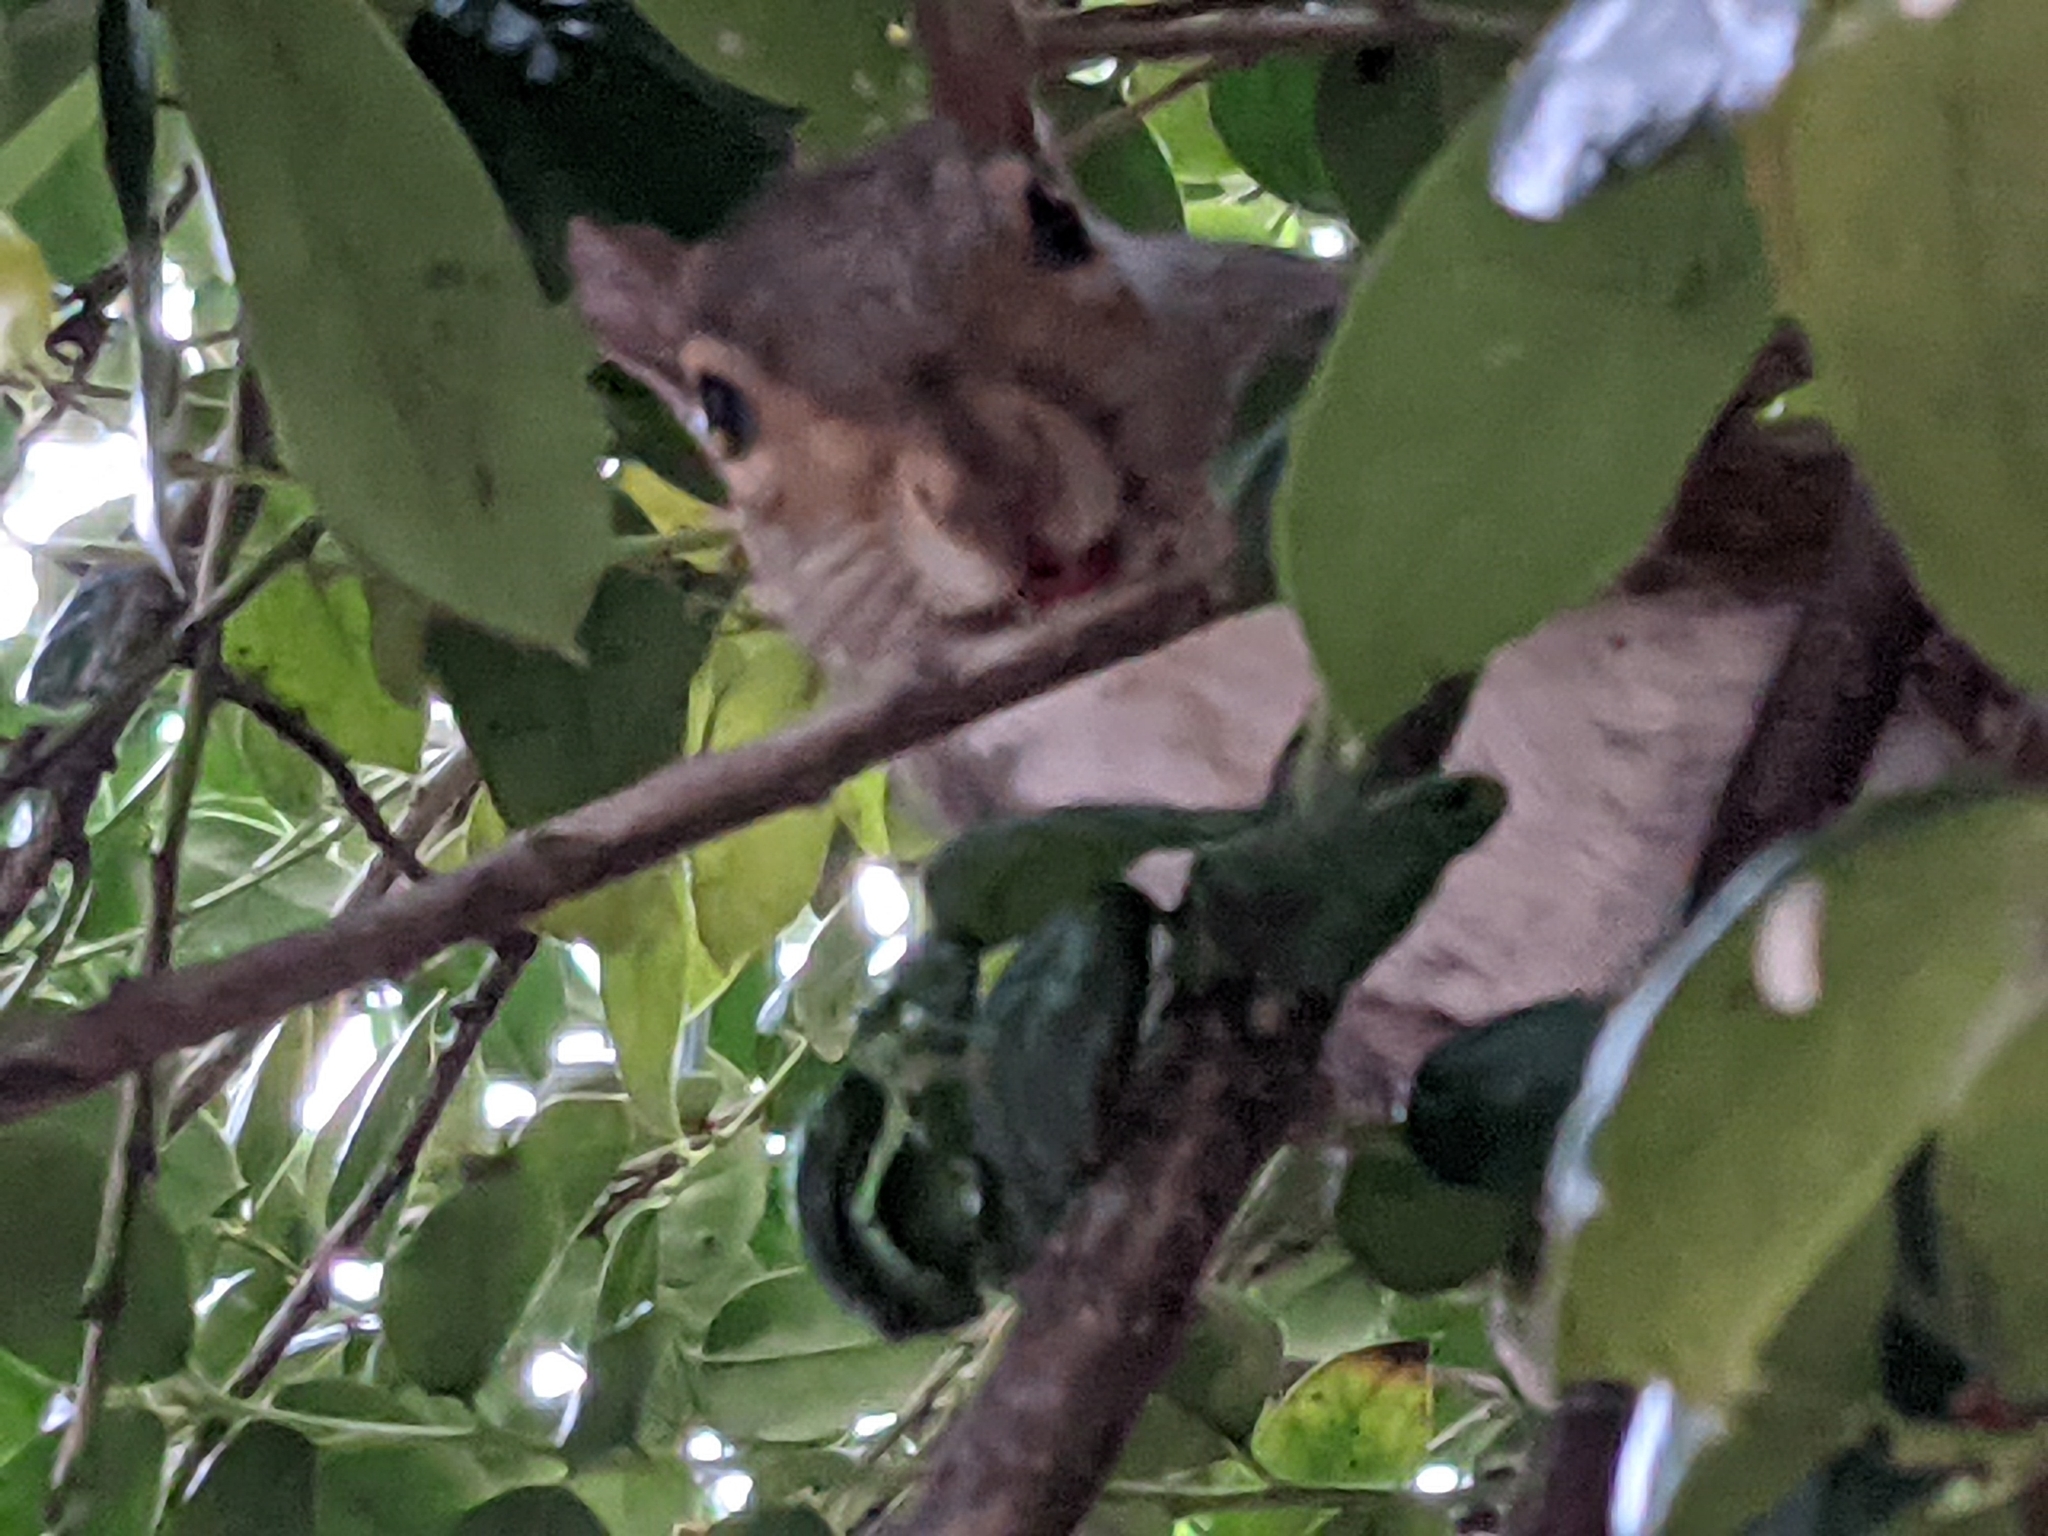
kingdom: Animalia
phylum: Chordata
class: Mammalia
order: Rodentia
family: Sciuridae
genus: Sciurus
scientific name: Sciurus carolinensis
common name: Eastern gray squirrel
